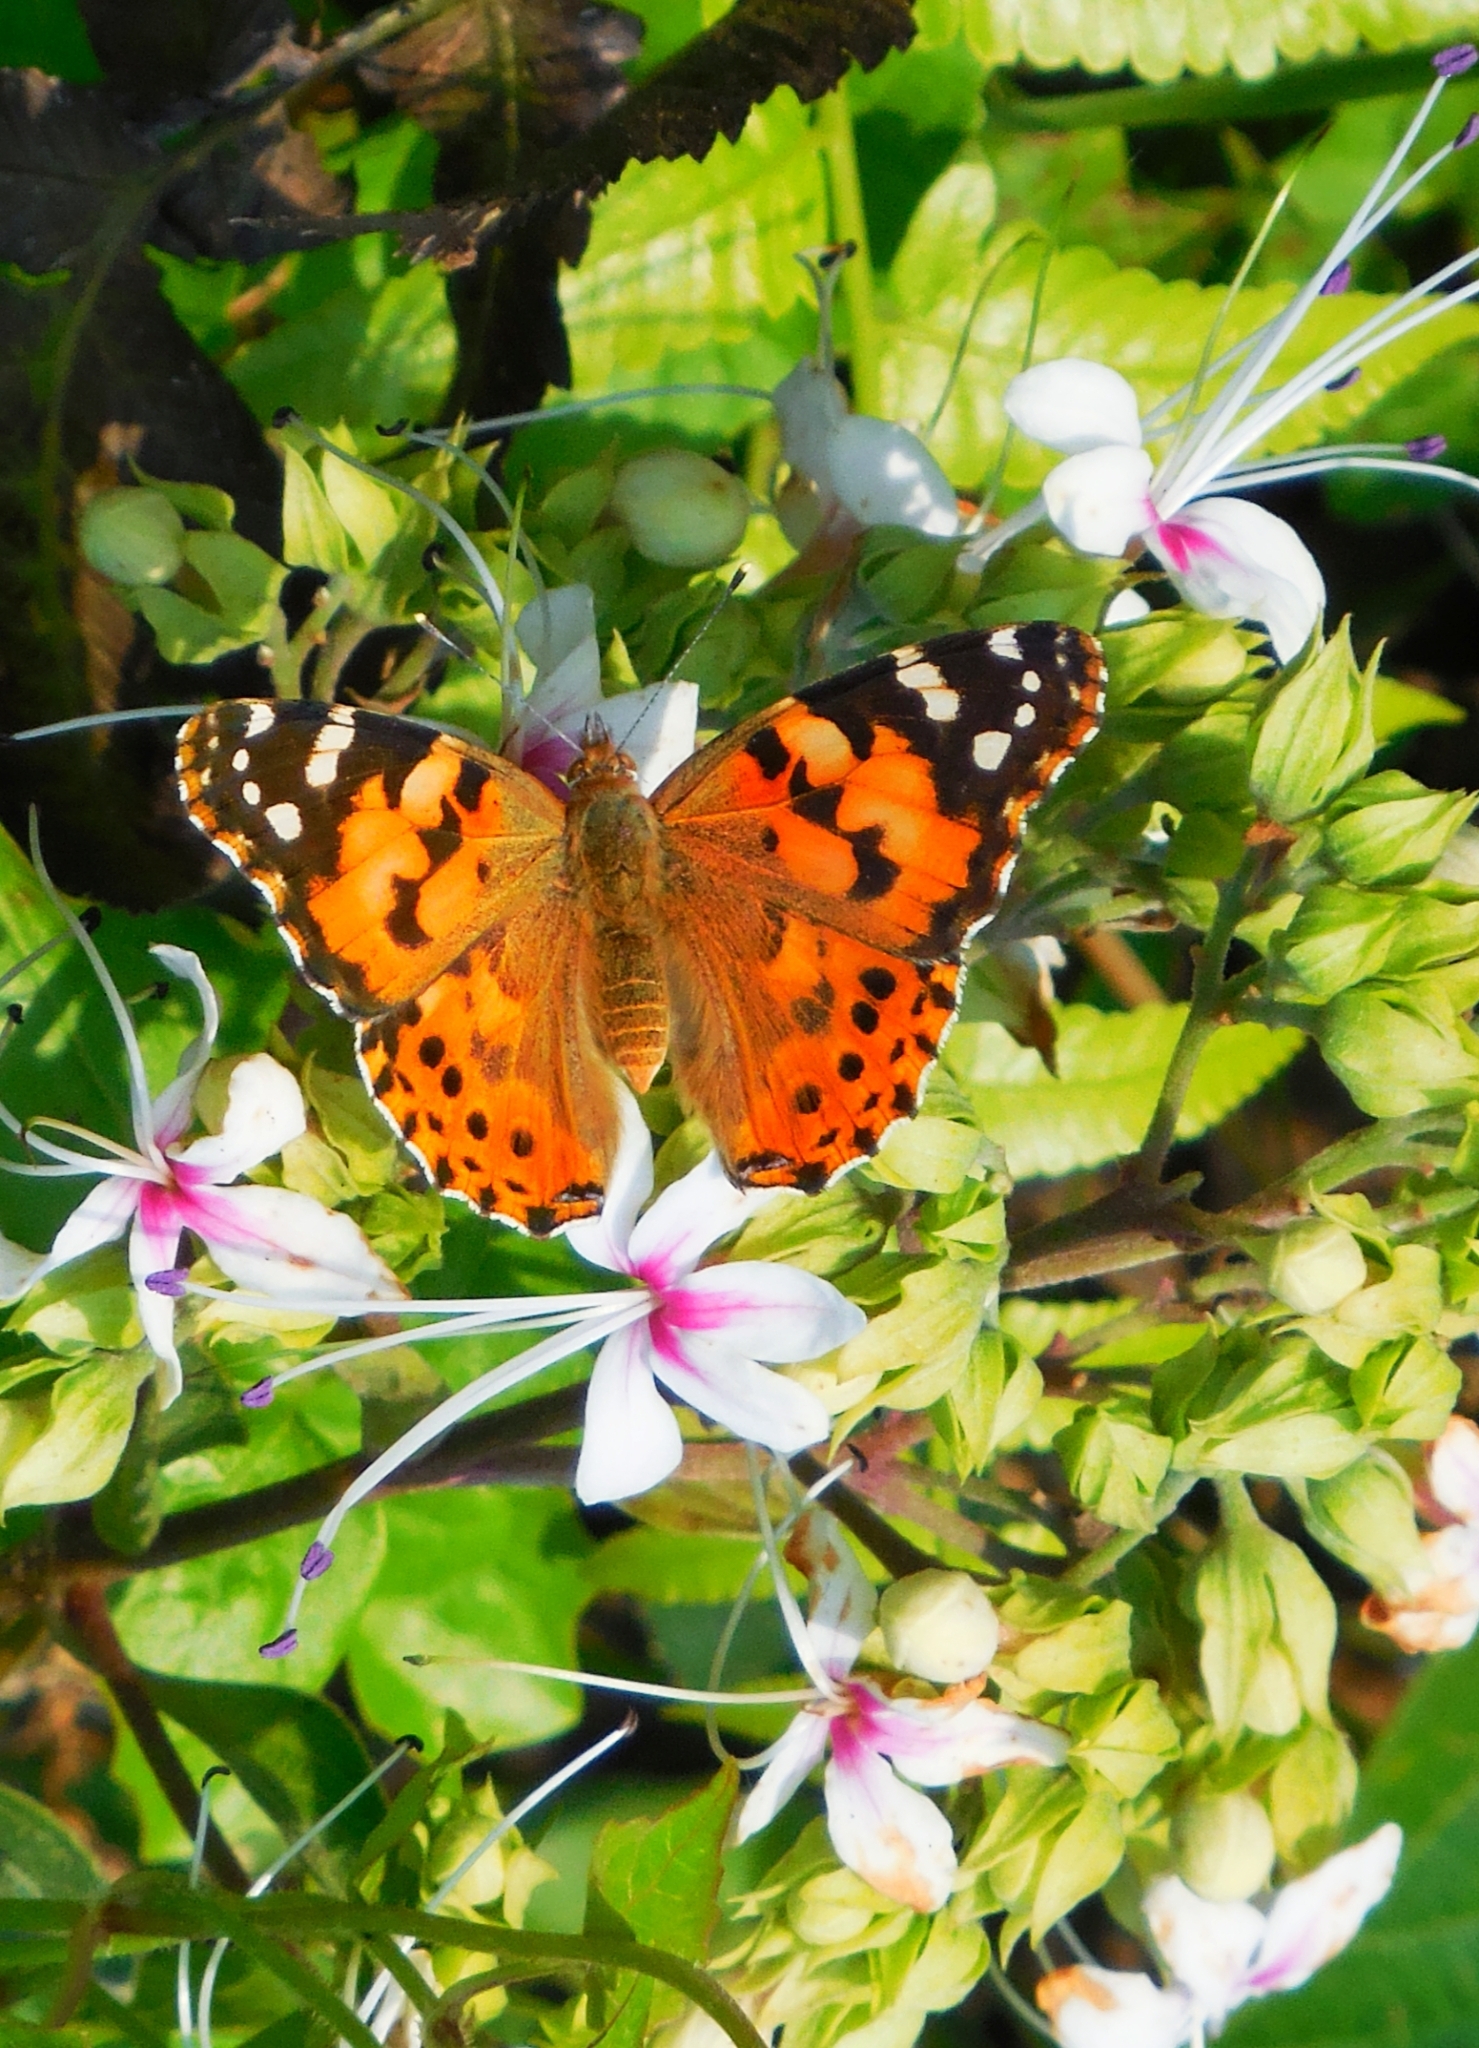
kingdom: Animalia
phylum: Arthropoda
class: Insecta
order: Lepidoptera
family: Nymphalidae
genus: Vanessa
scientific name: Vanessa cardui
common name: Painted lady
